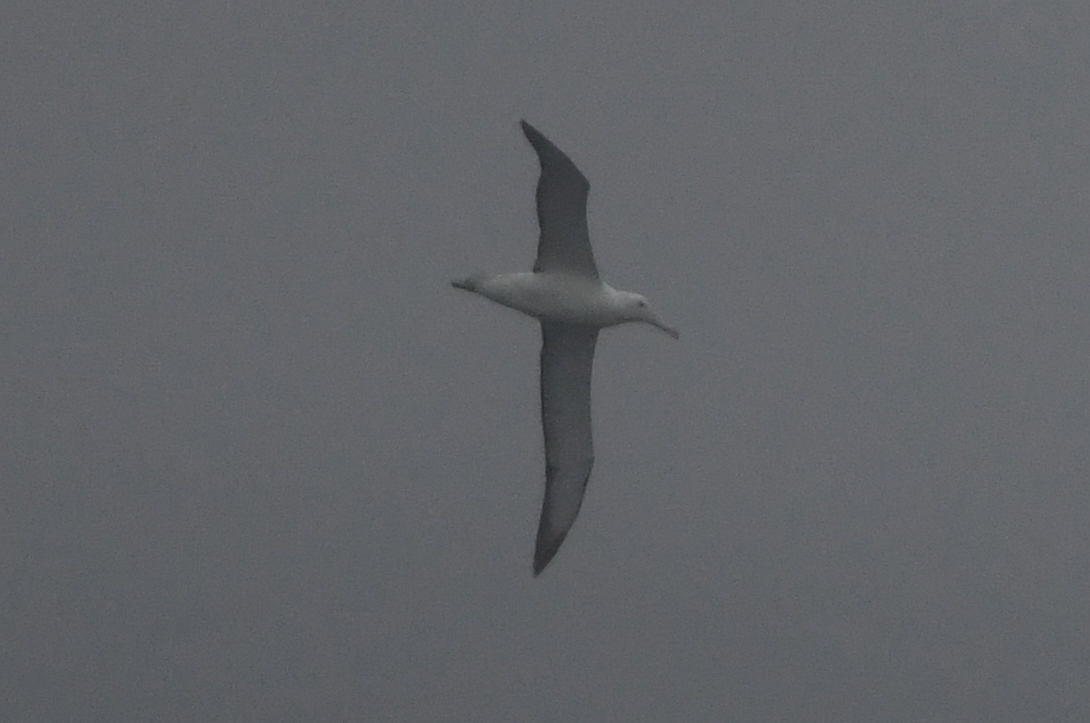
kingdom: Animalia
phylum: Chordata
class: Aves
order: Procellariiformes
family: Diomedeidae
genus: Diomedea
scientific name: Diomedea epomophora
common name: Southern royal albatross
